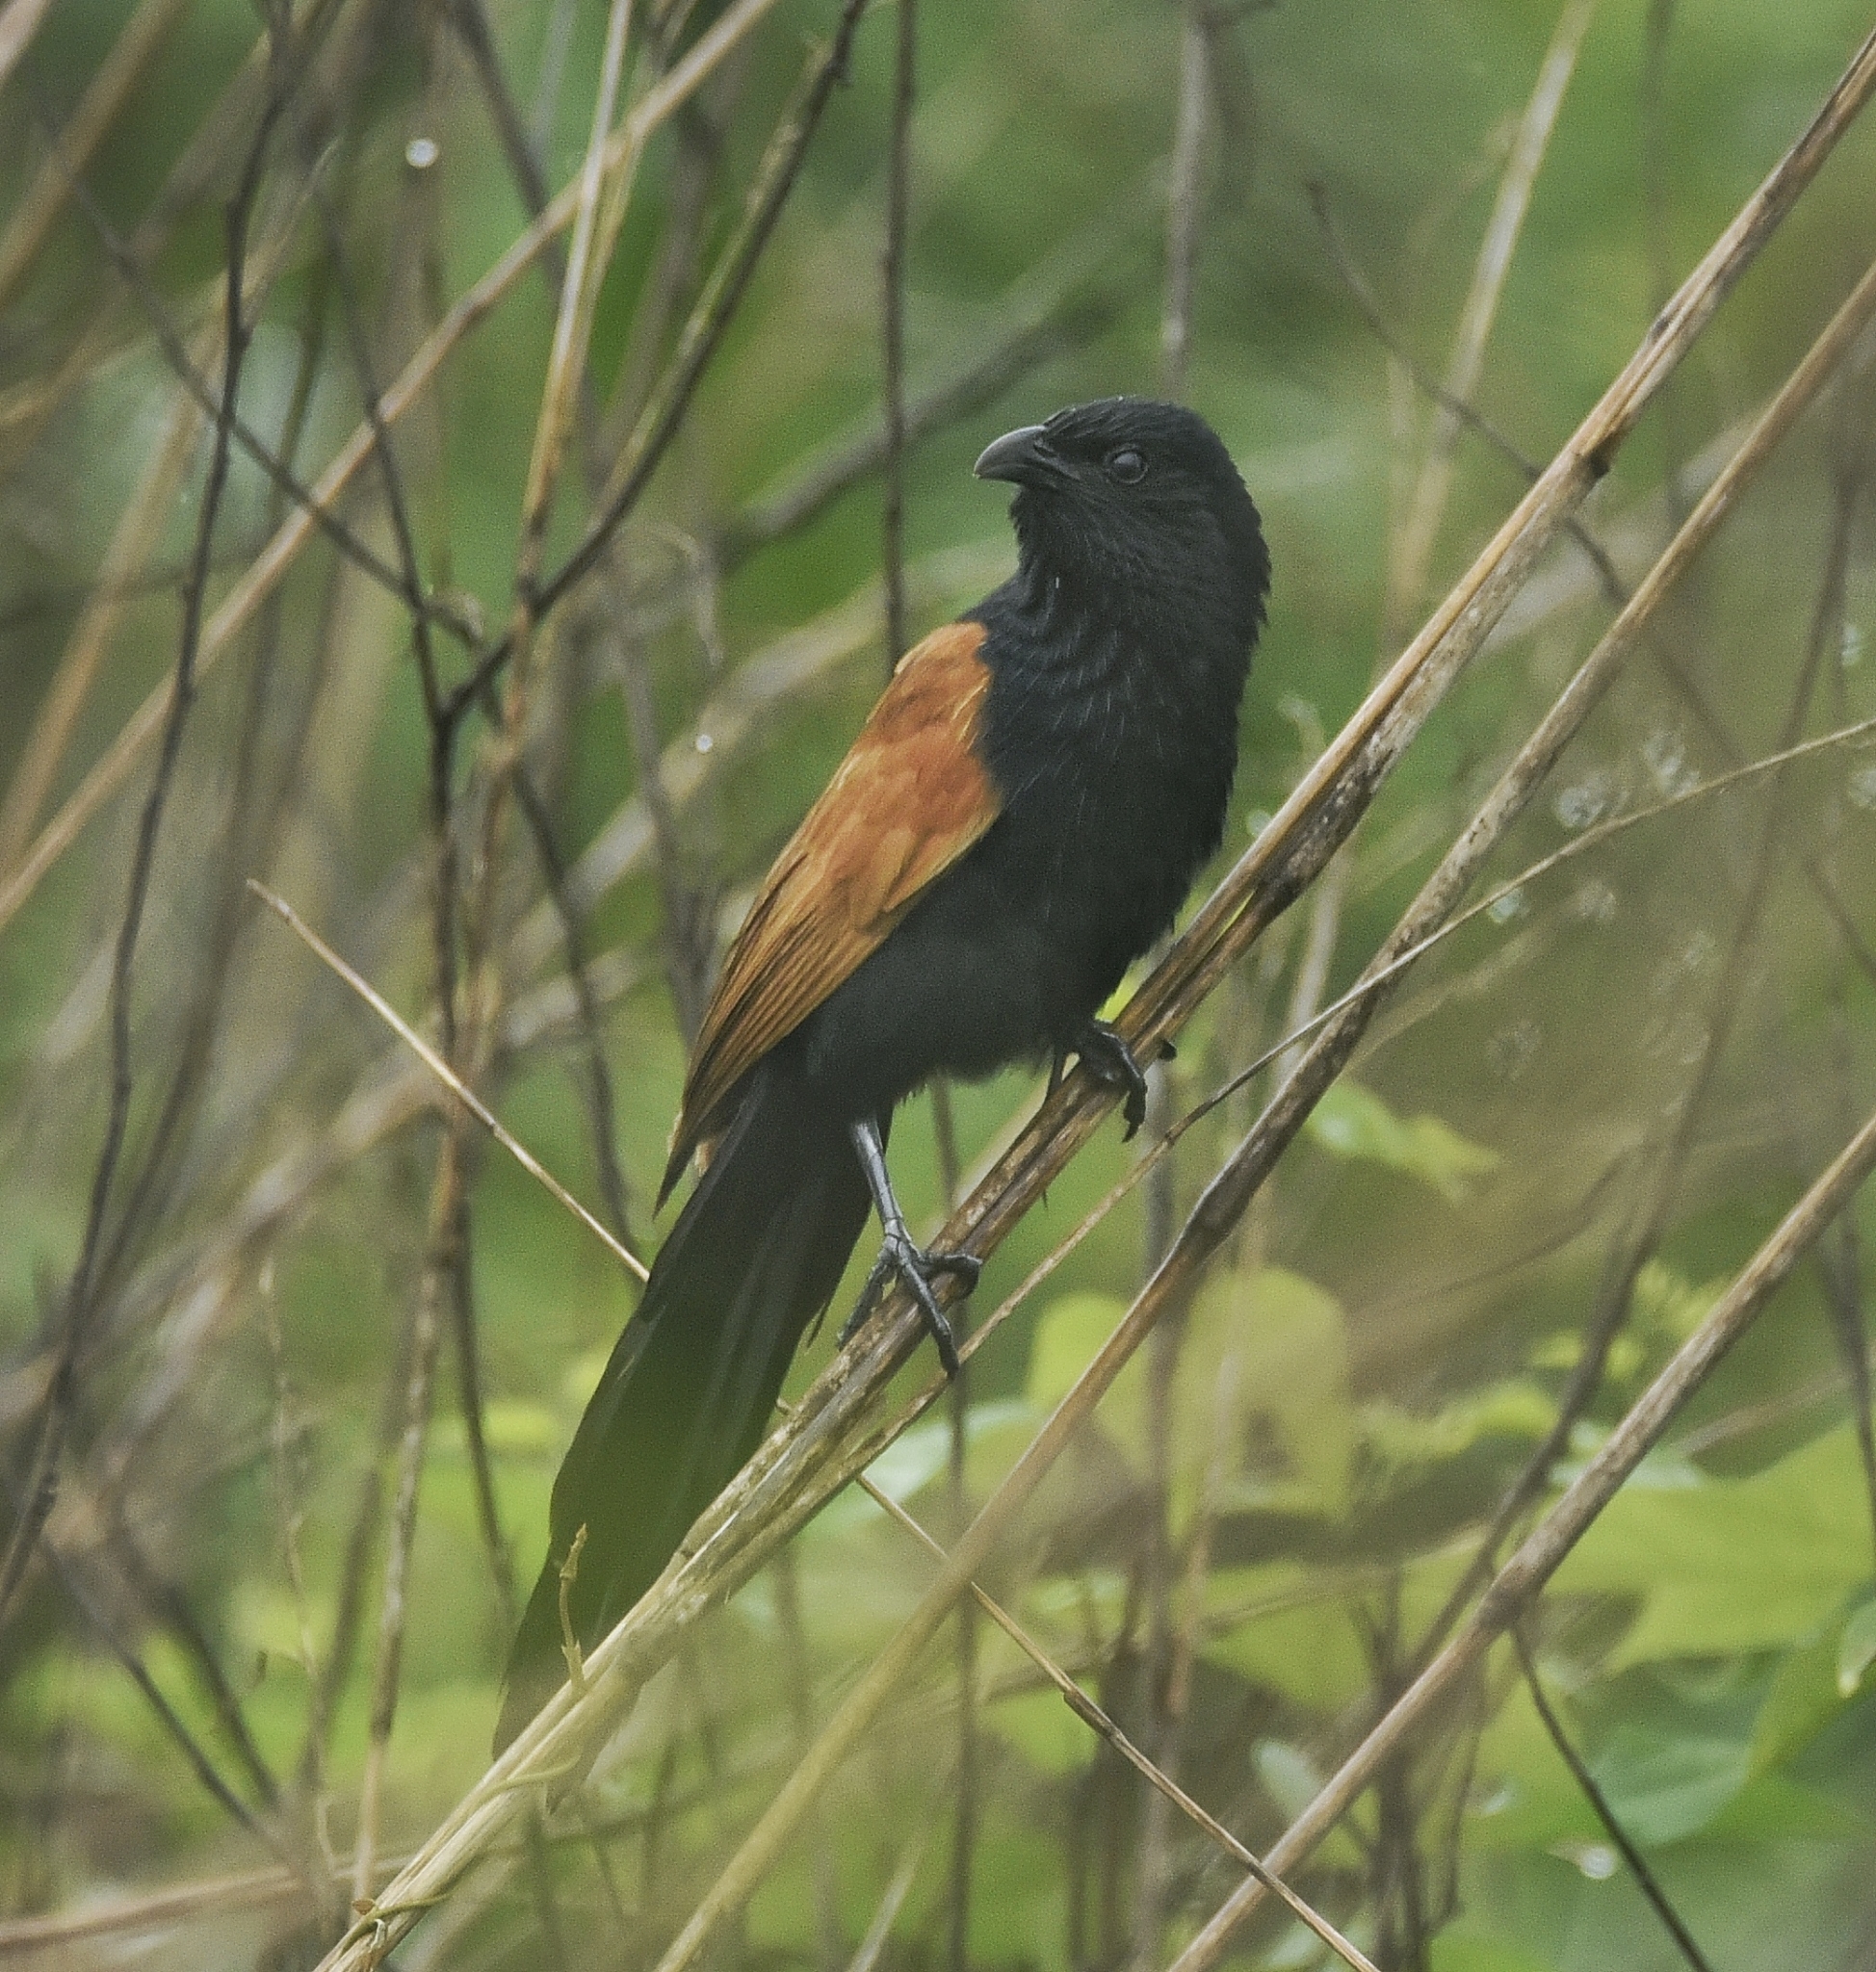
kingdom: Animalia
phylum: Chordata
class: Aves
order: Cuculiformes
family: Cuculidae
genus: Centropus
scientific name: Centropus bengalensis
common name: Lesser coucal
